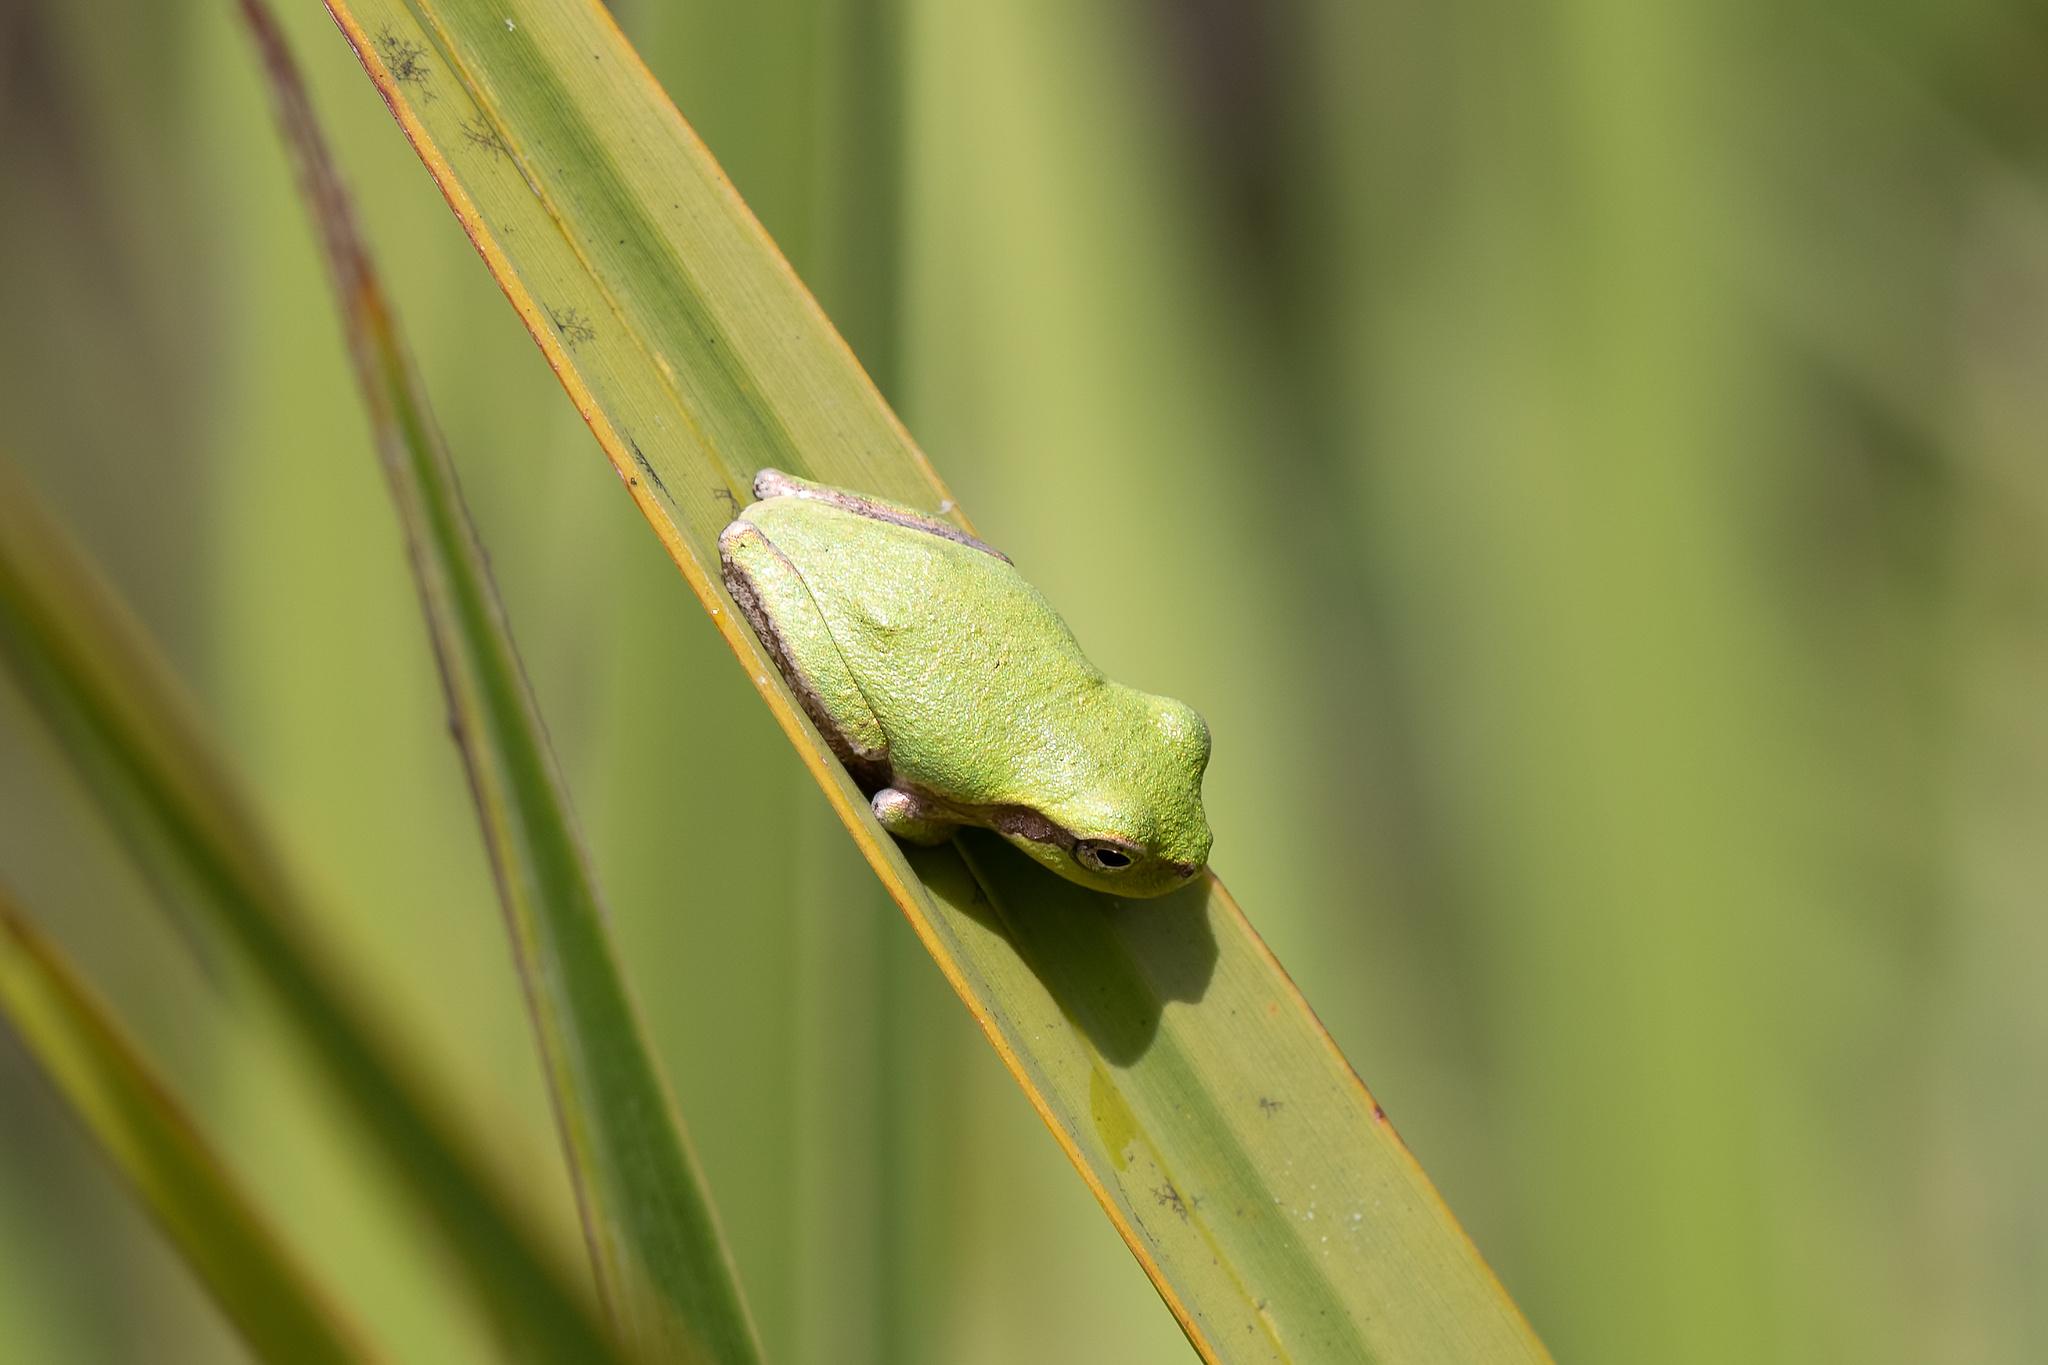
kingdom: Animalia
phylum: Chordata
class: Amphibia
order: Anura
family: Hylidae
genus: Hyla
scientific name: Hyla femoralis
